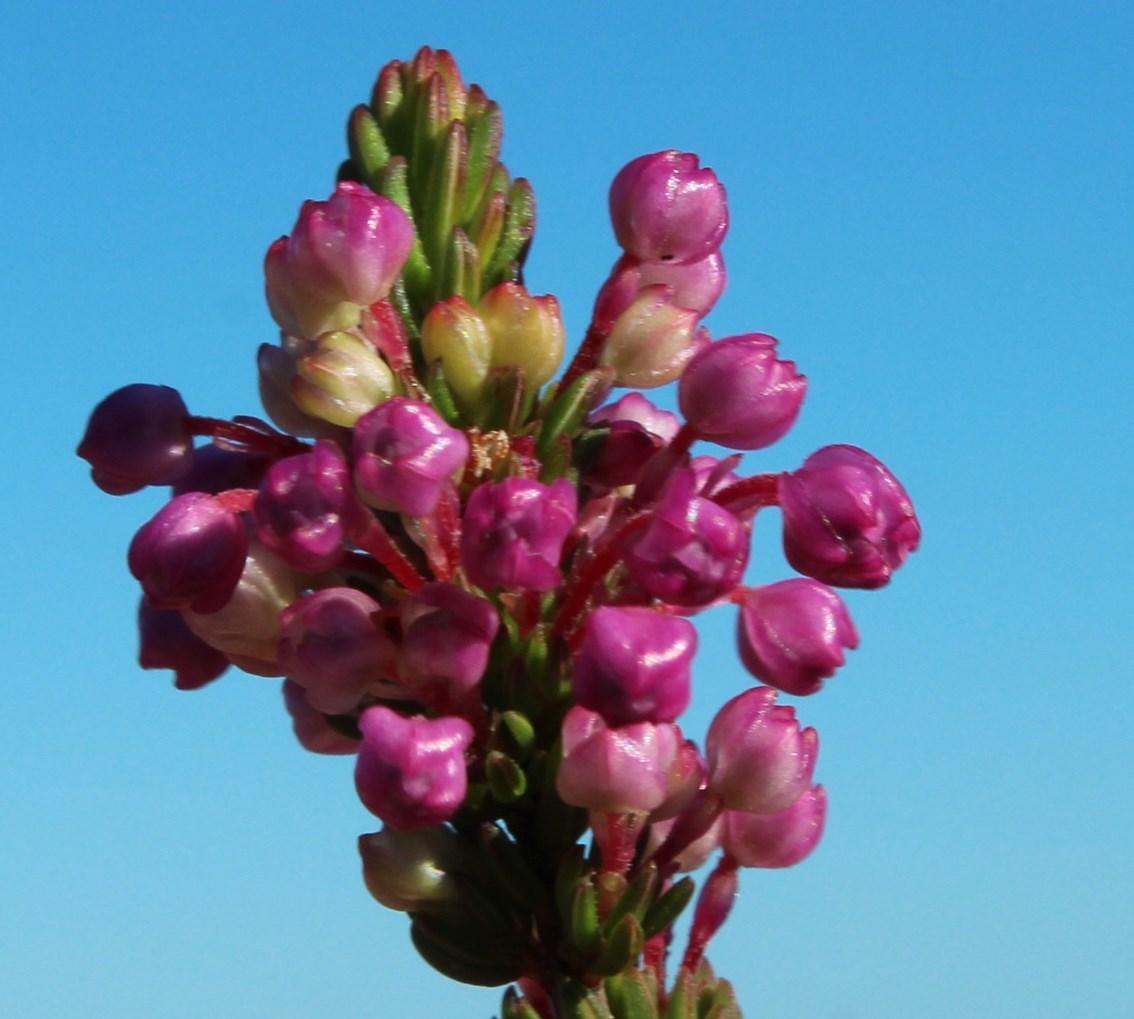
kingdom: Plantae
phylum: Tracheophyta
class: Magnoliopsida
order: Ericales
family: Ericaceae
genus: Erica
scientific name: Erica gracilipes
